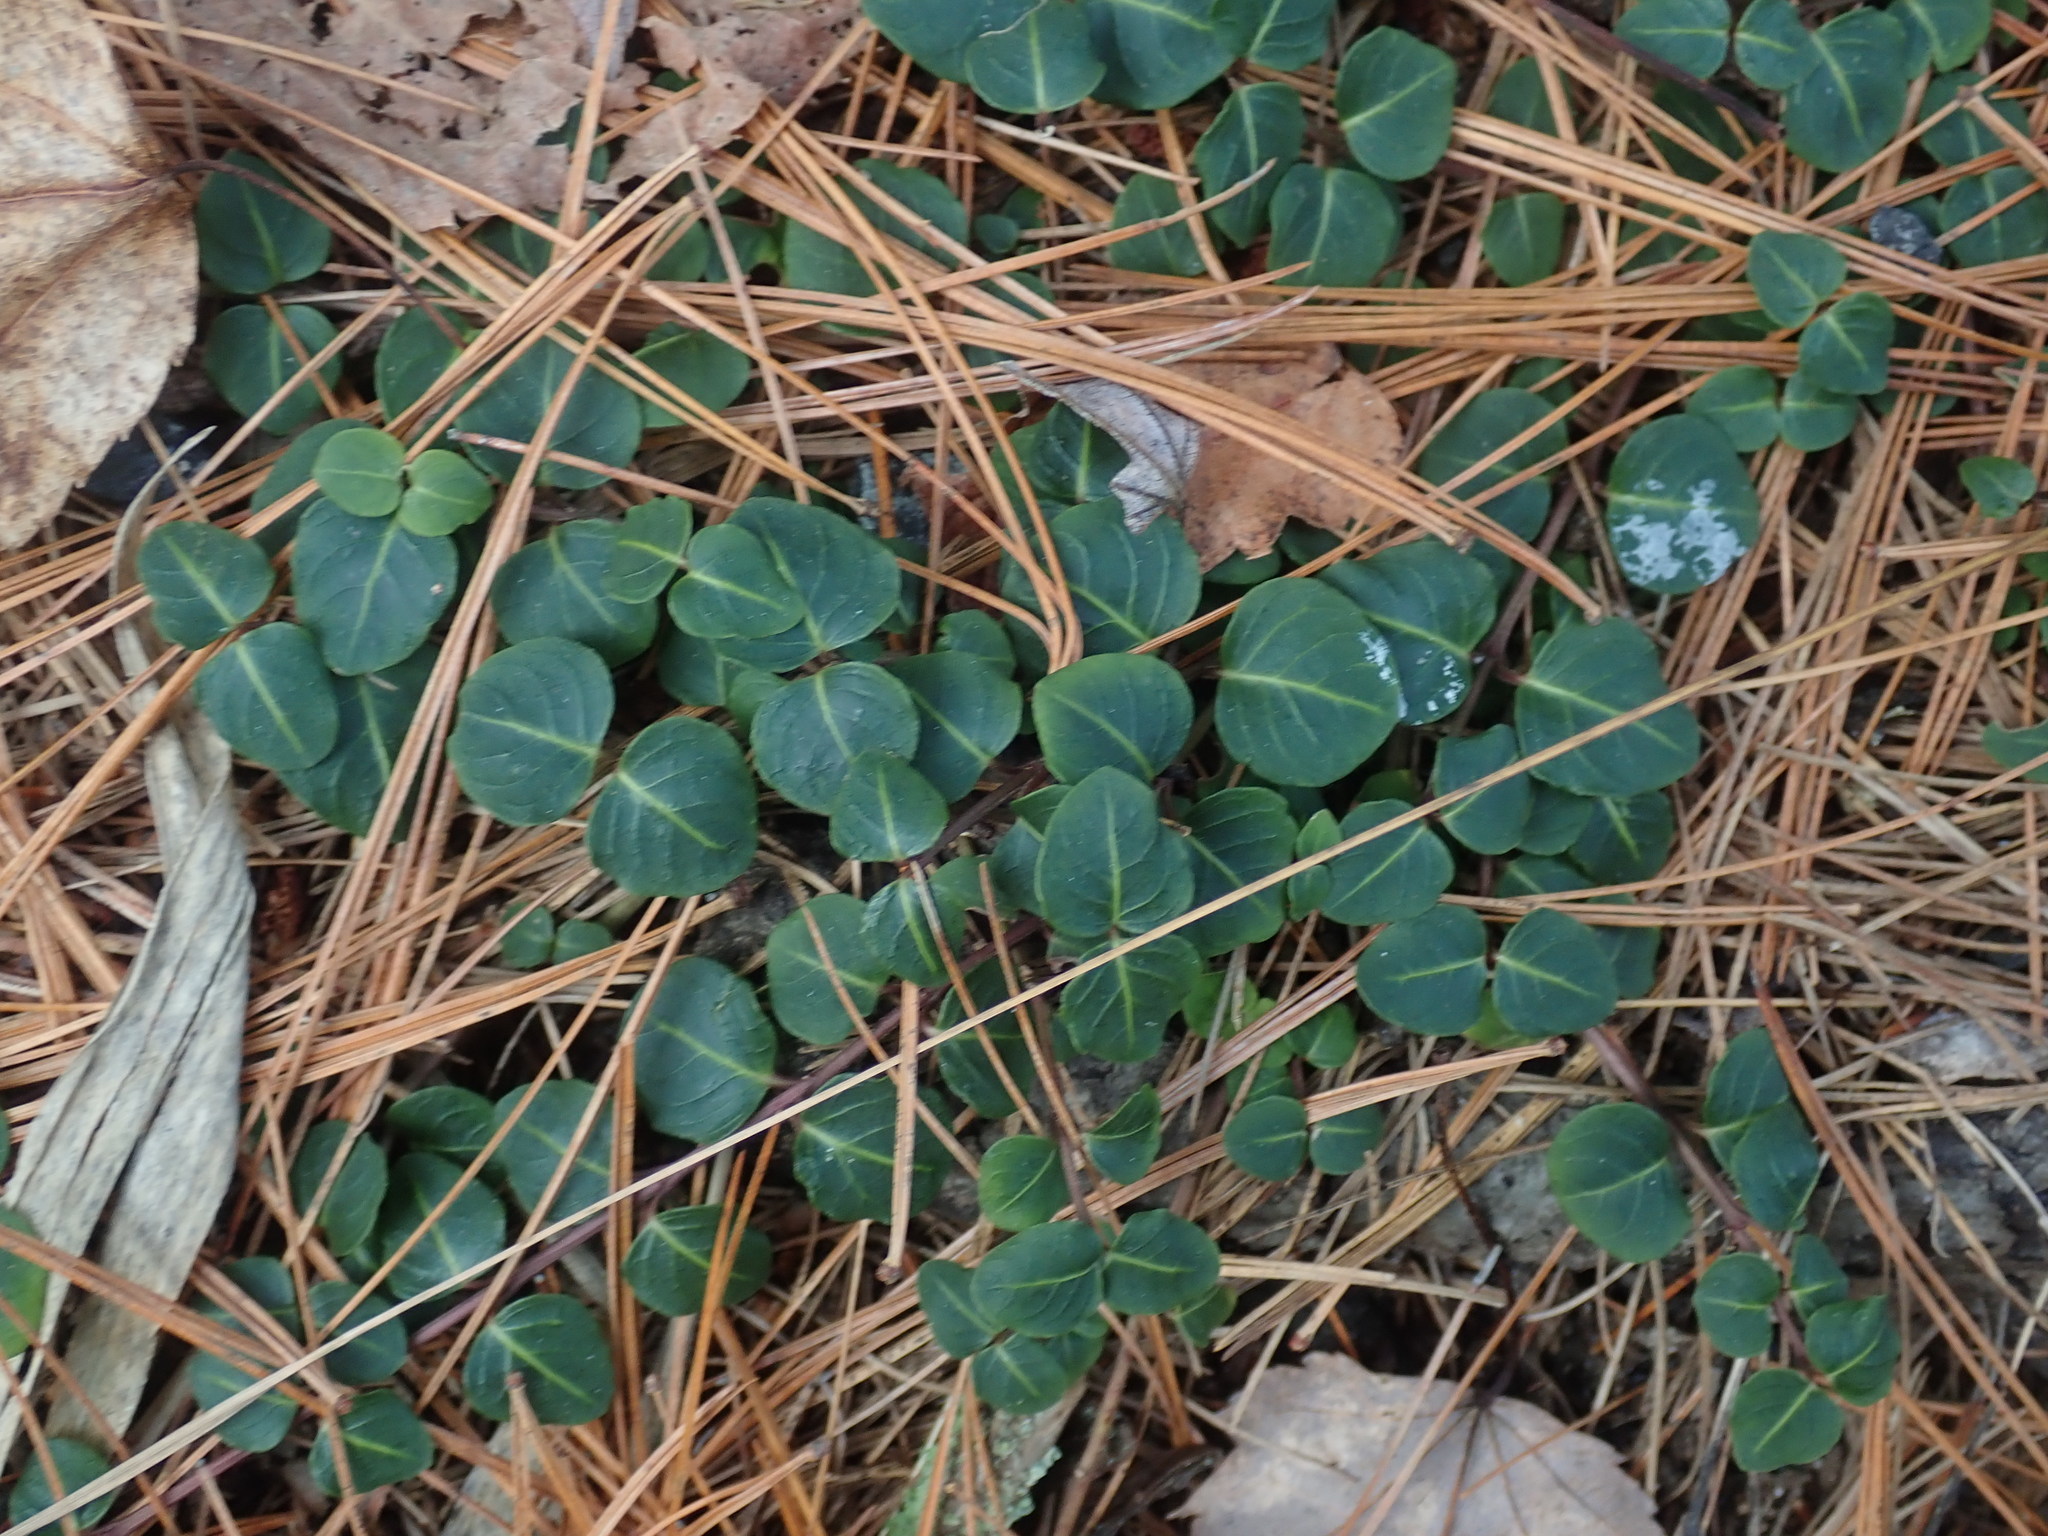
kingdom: Plantae
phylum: Tracheophyta
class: Magnoliopsida
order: Gentianales
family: Rubiaceae
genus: Mitchella
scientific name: Mitchella repens
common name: Partridge-berry
